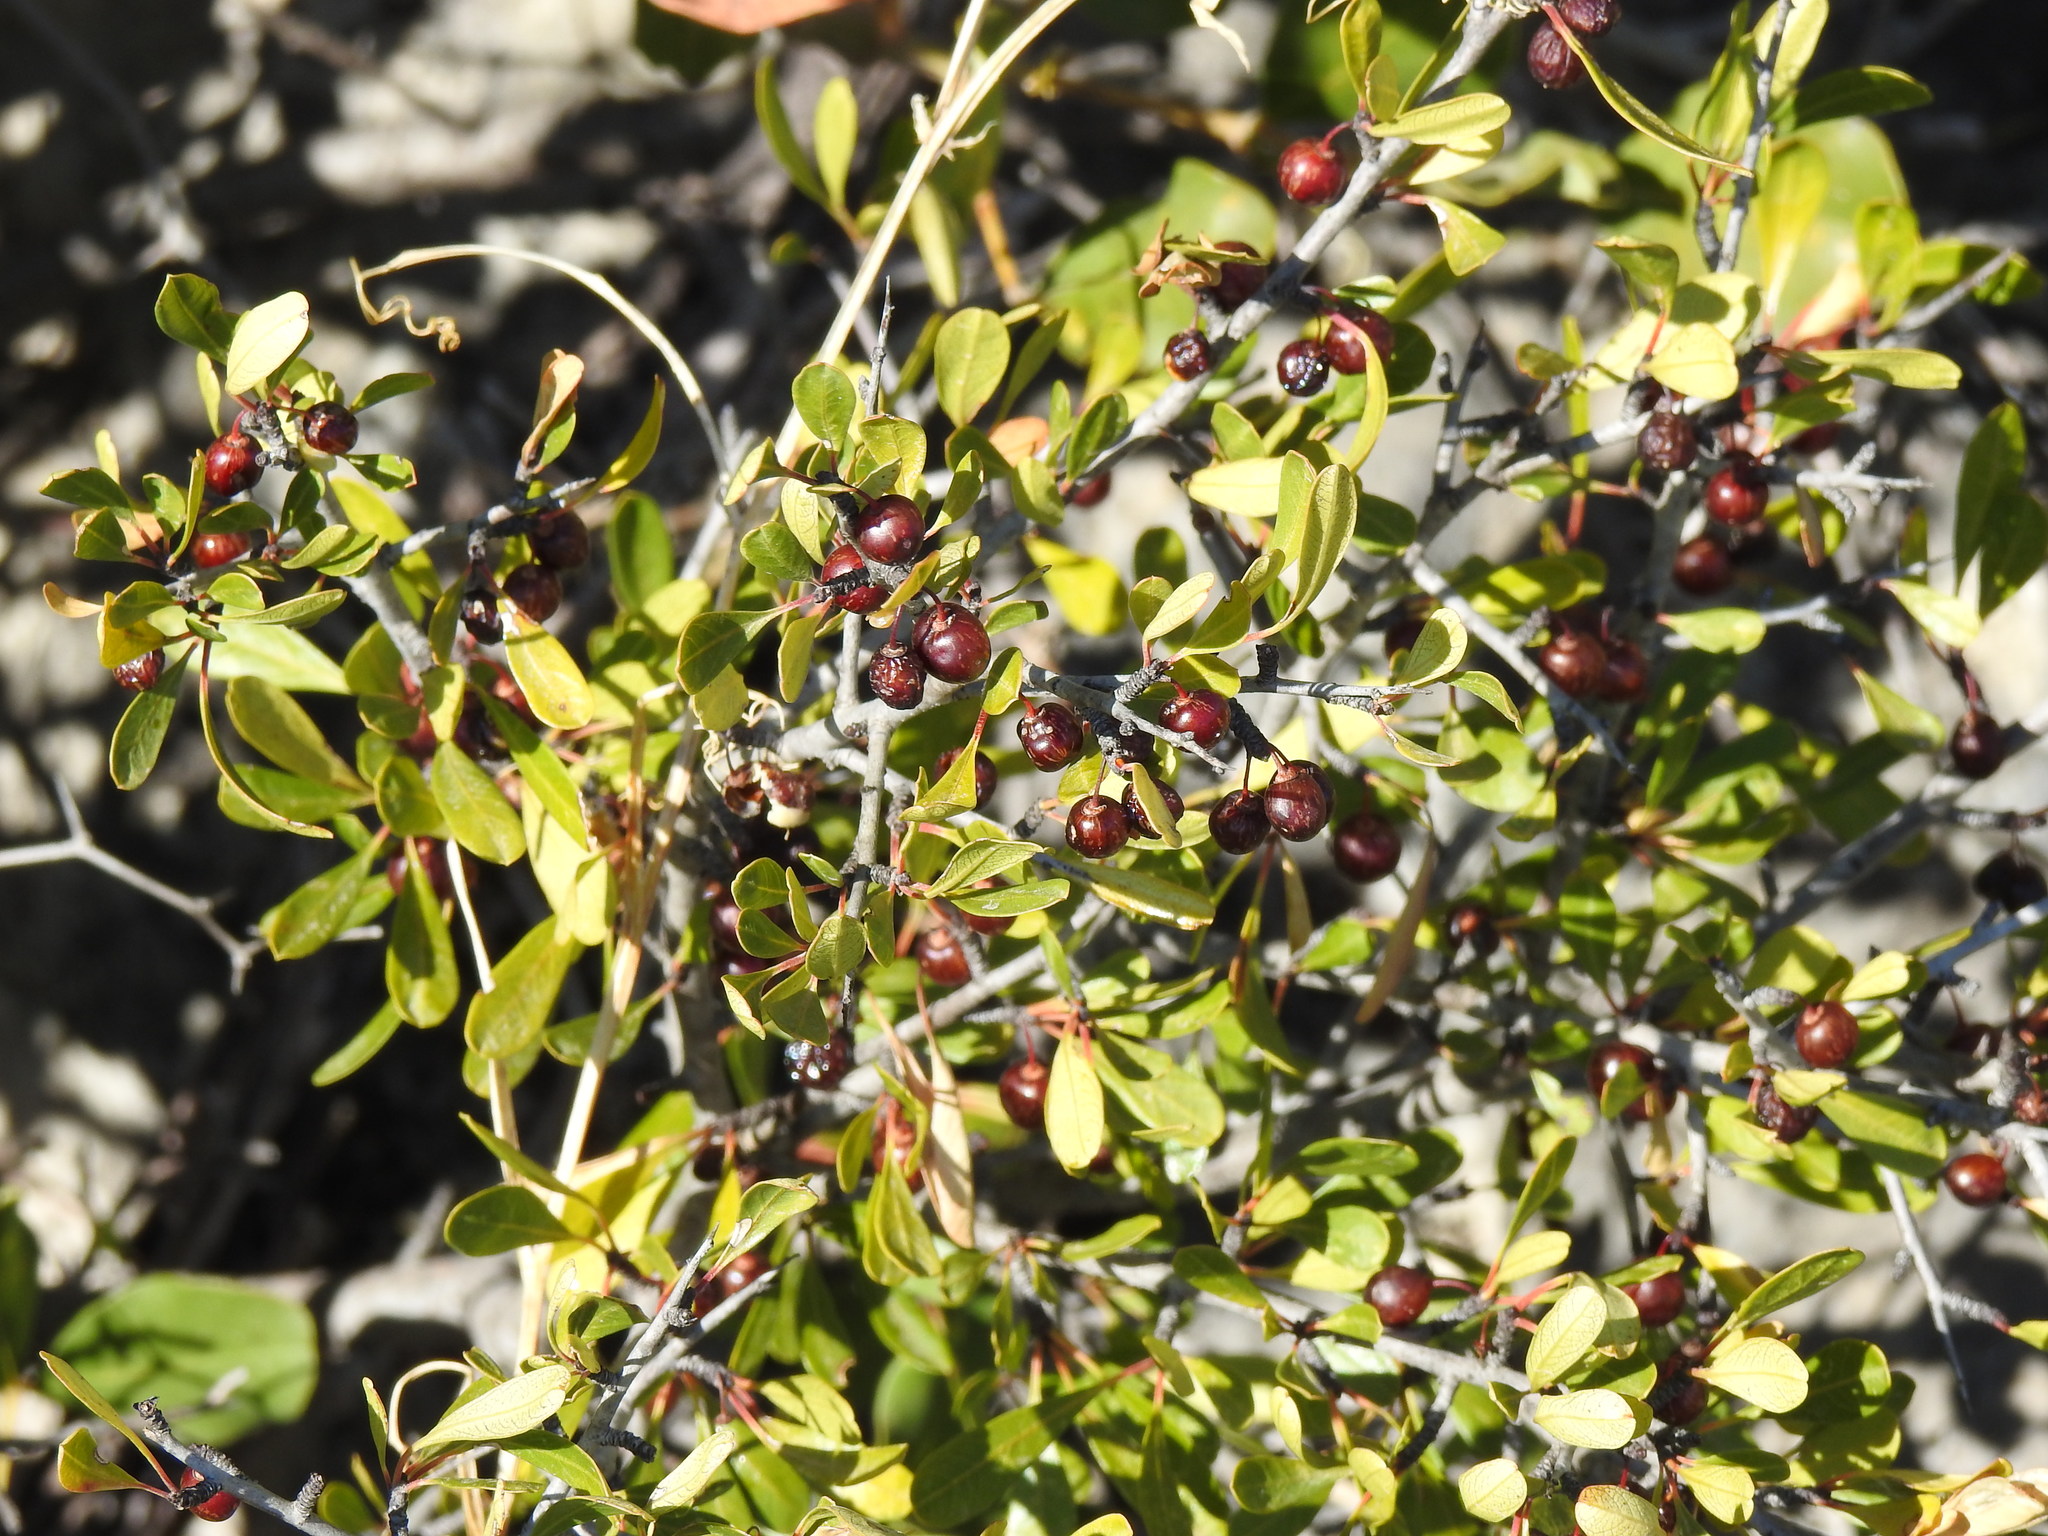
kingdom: Plantae
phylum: Tracheophyta
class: Magnoliopsida
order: Rosales
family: Rhamnaceae
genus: Rhamnus
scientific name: Rhamnus oleoides
